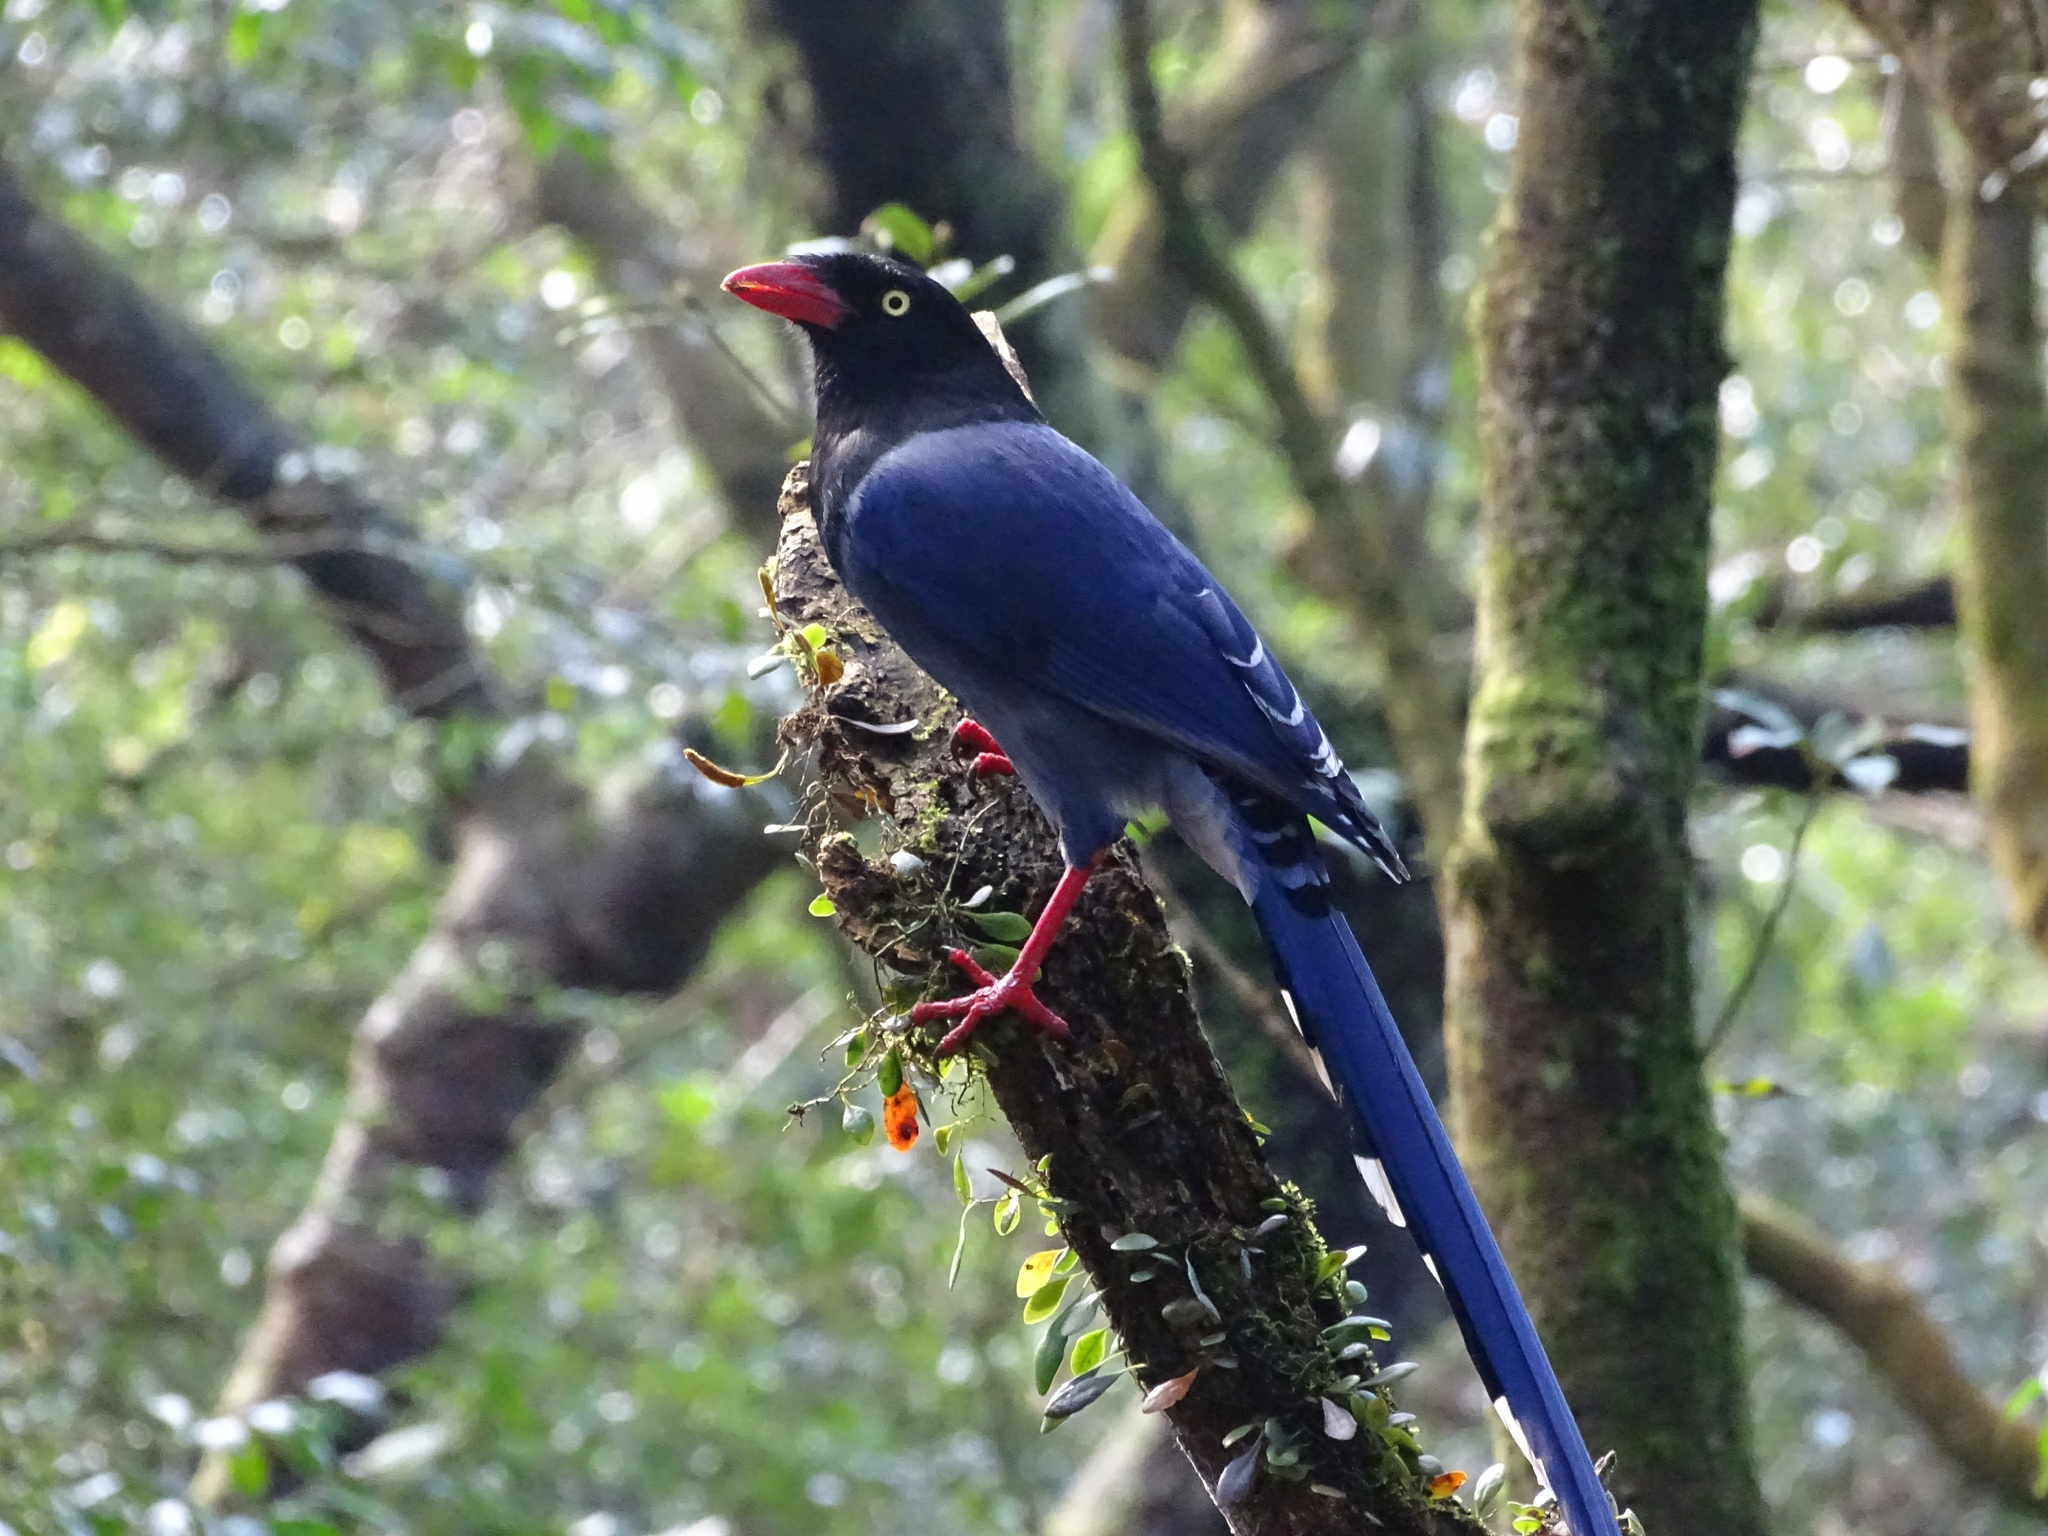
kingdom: Animalia
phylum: Chordata
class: Aves
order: Passeriformes
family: Corvidae
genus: Urocissa
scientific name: Urocissa caerulea
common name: Taiwan blue magpie
